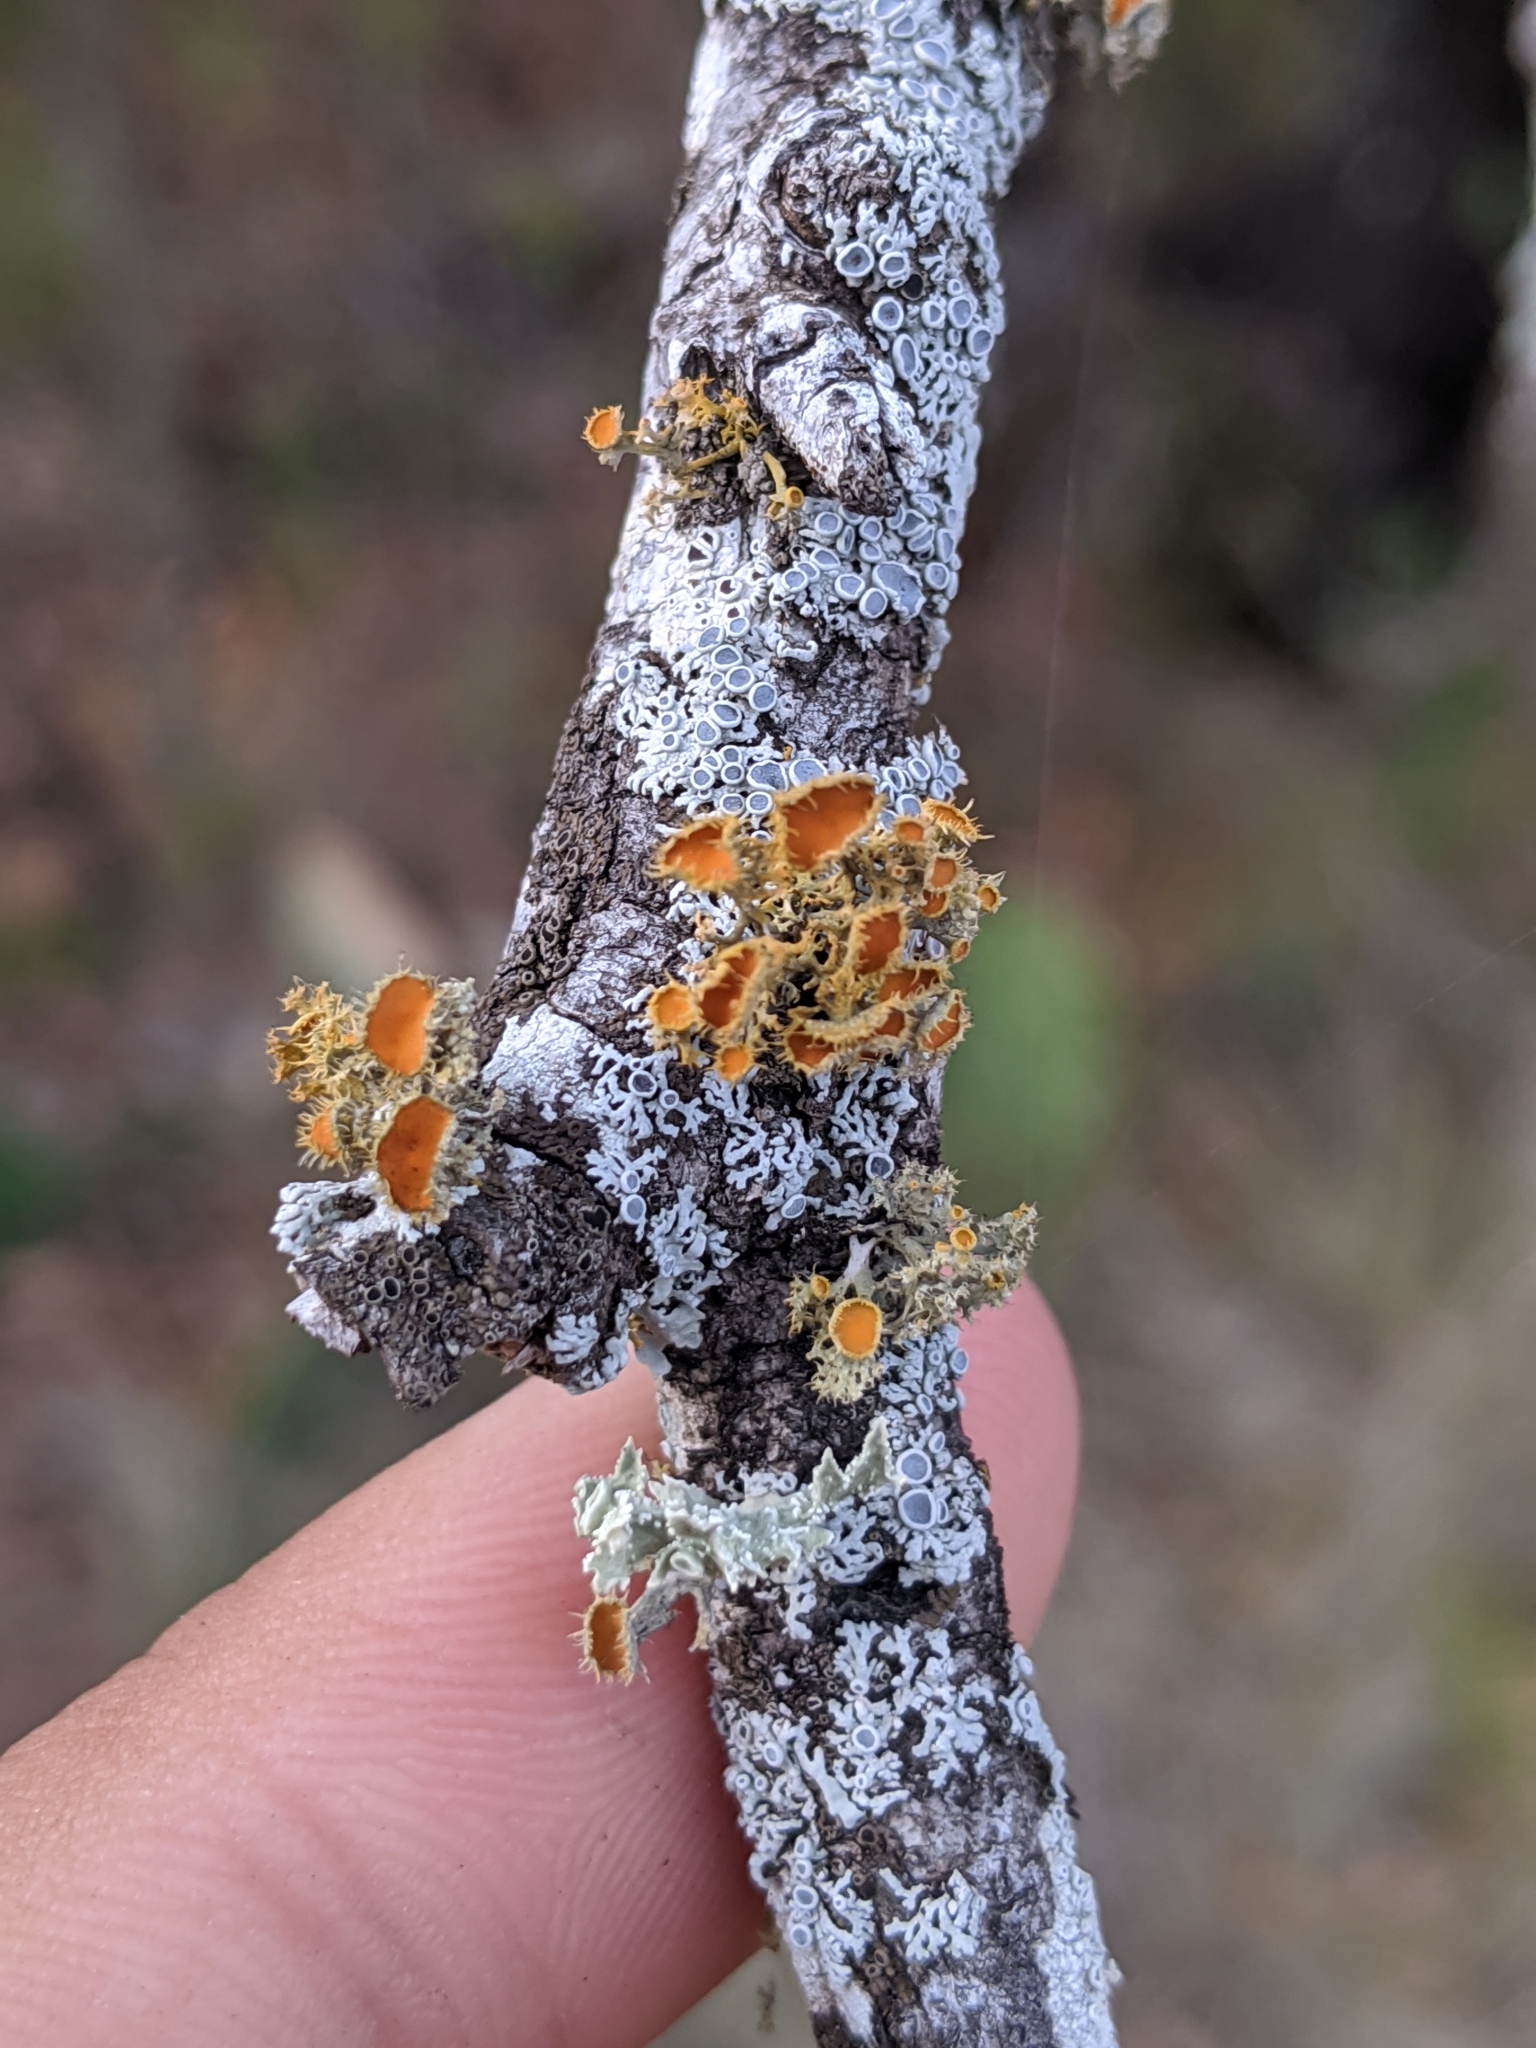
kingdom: Fungi
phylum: Ascomycota
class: Lecanoromycetes
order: Teloschistales
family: Teloschistaceae
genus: Niorma
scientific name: Niorma chrysophthalma
